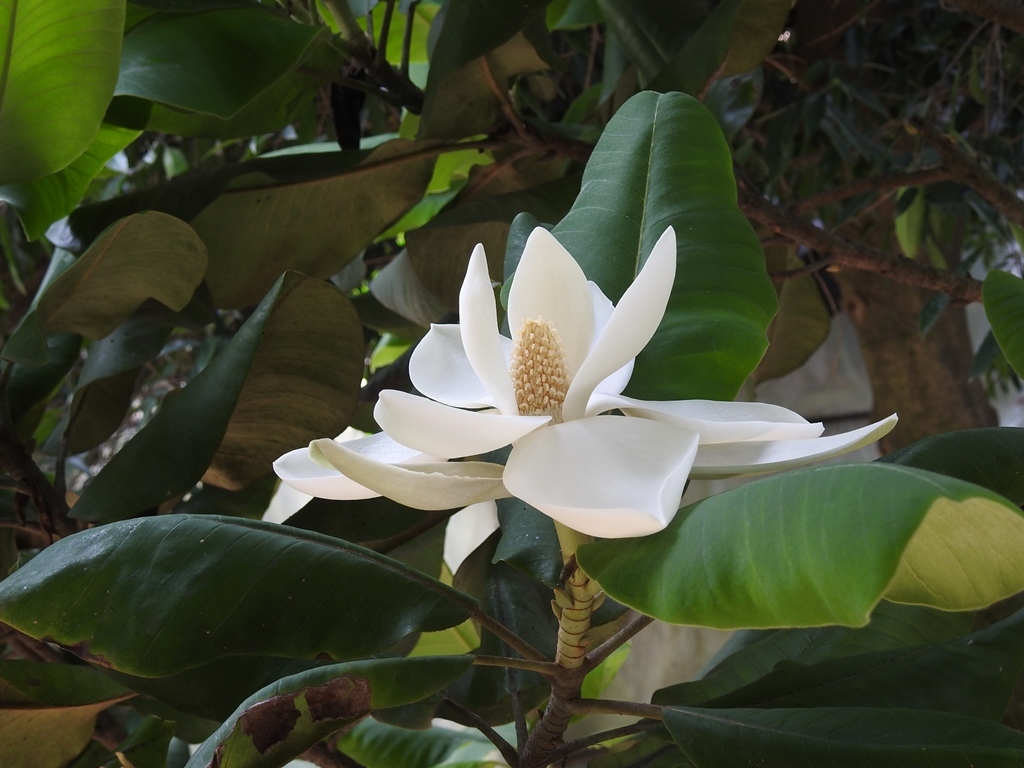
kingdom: Plantae
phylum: Tracheophyta
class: Magnoliopsida
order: Magnoliales
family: Magnoliaceae
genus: Magnolia
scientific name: Magnolia sharpii
